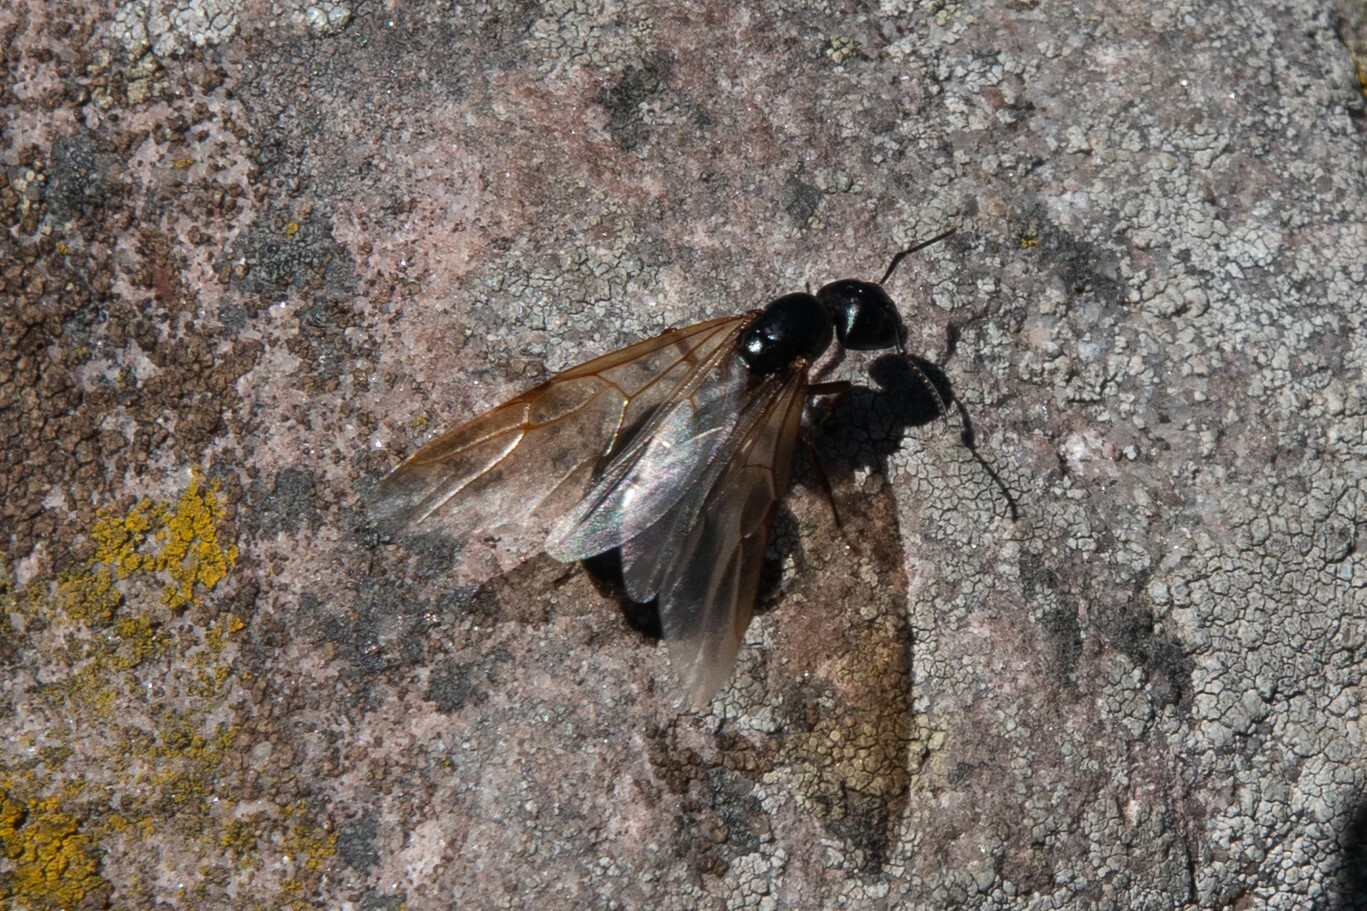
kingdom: Animalia
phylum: Arthropoda
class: Insecta
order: Hymenoptera
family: Formicidae
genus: Camponotus
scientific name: Camponotus herculeanus
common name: Hercules ant
